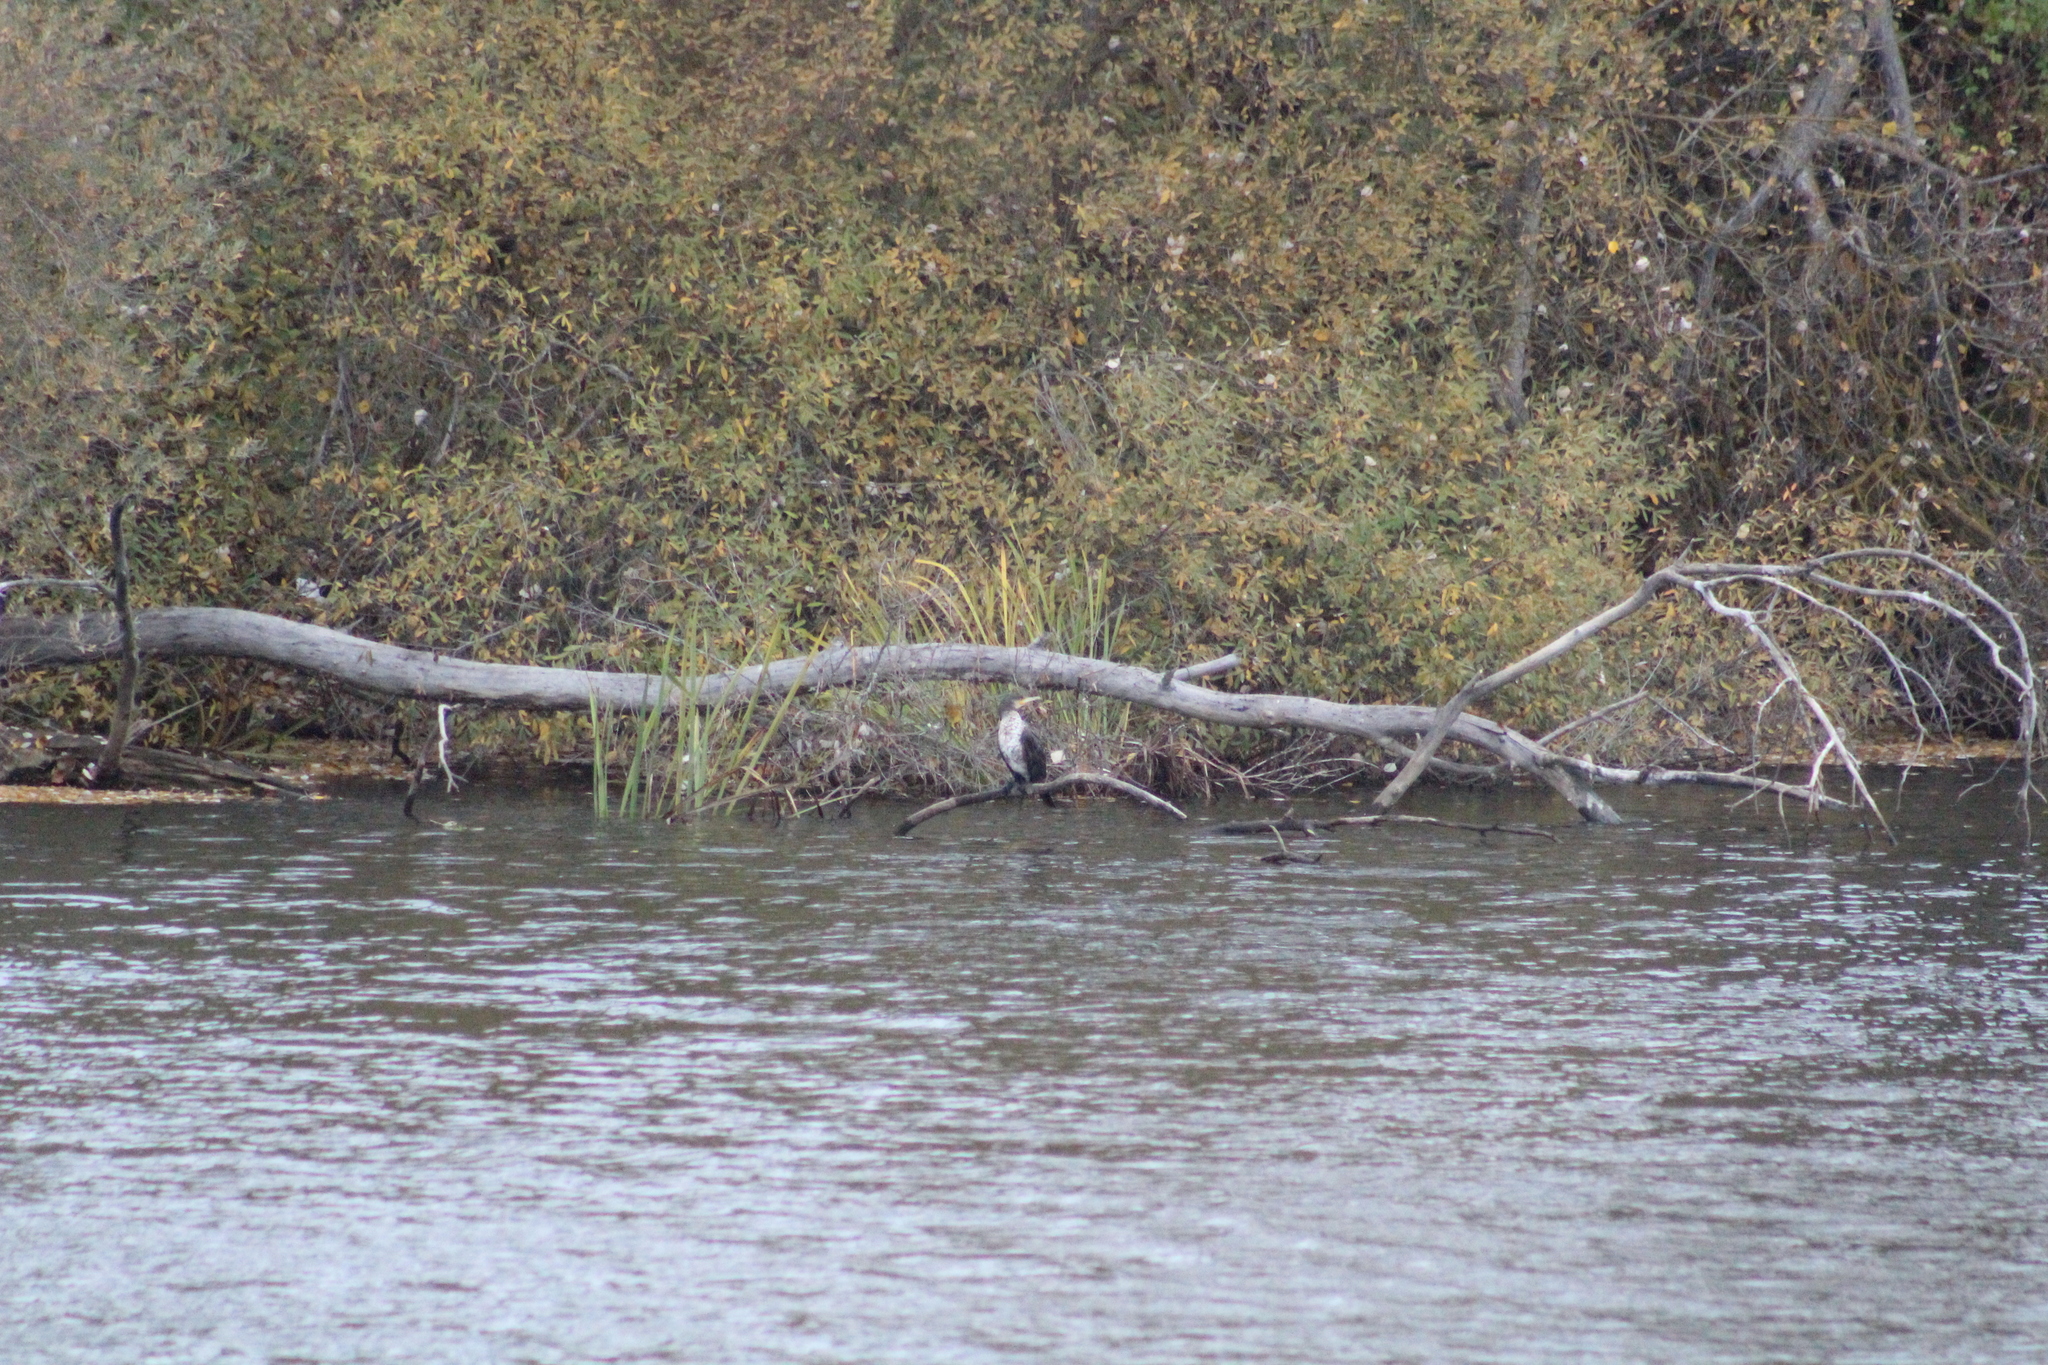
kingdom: Animalia
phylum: Chordata
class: Aves
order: Suliformes
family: Phalacrocoracidae
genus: Phalacrocorax
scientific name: Phalacrocorax carbo
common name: Great cormorant
